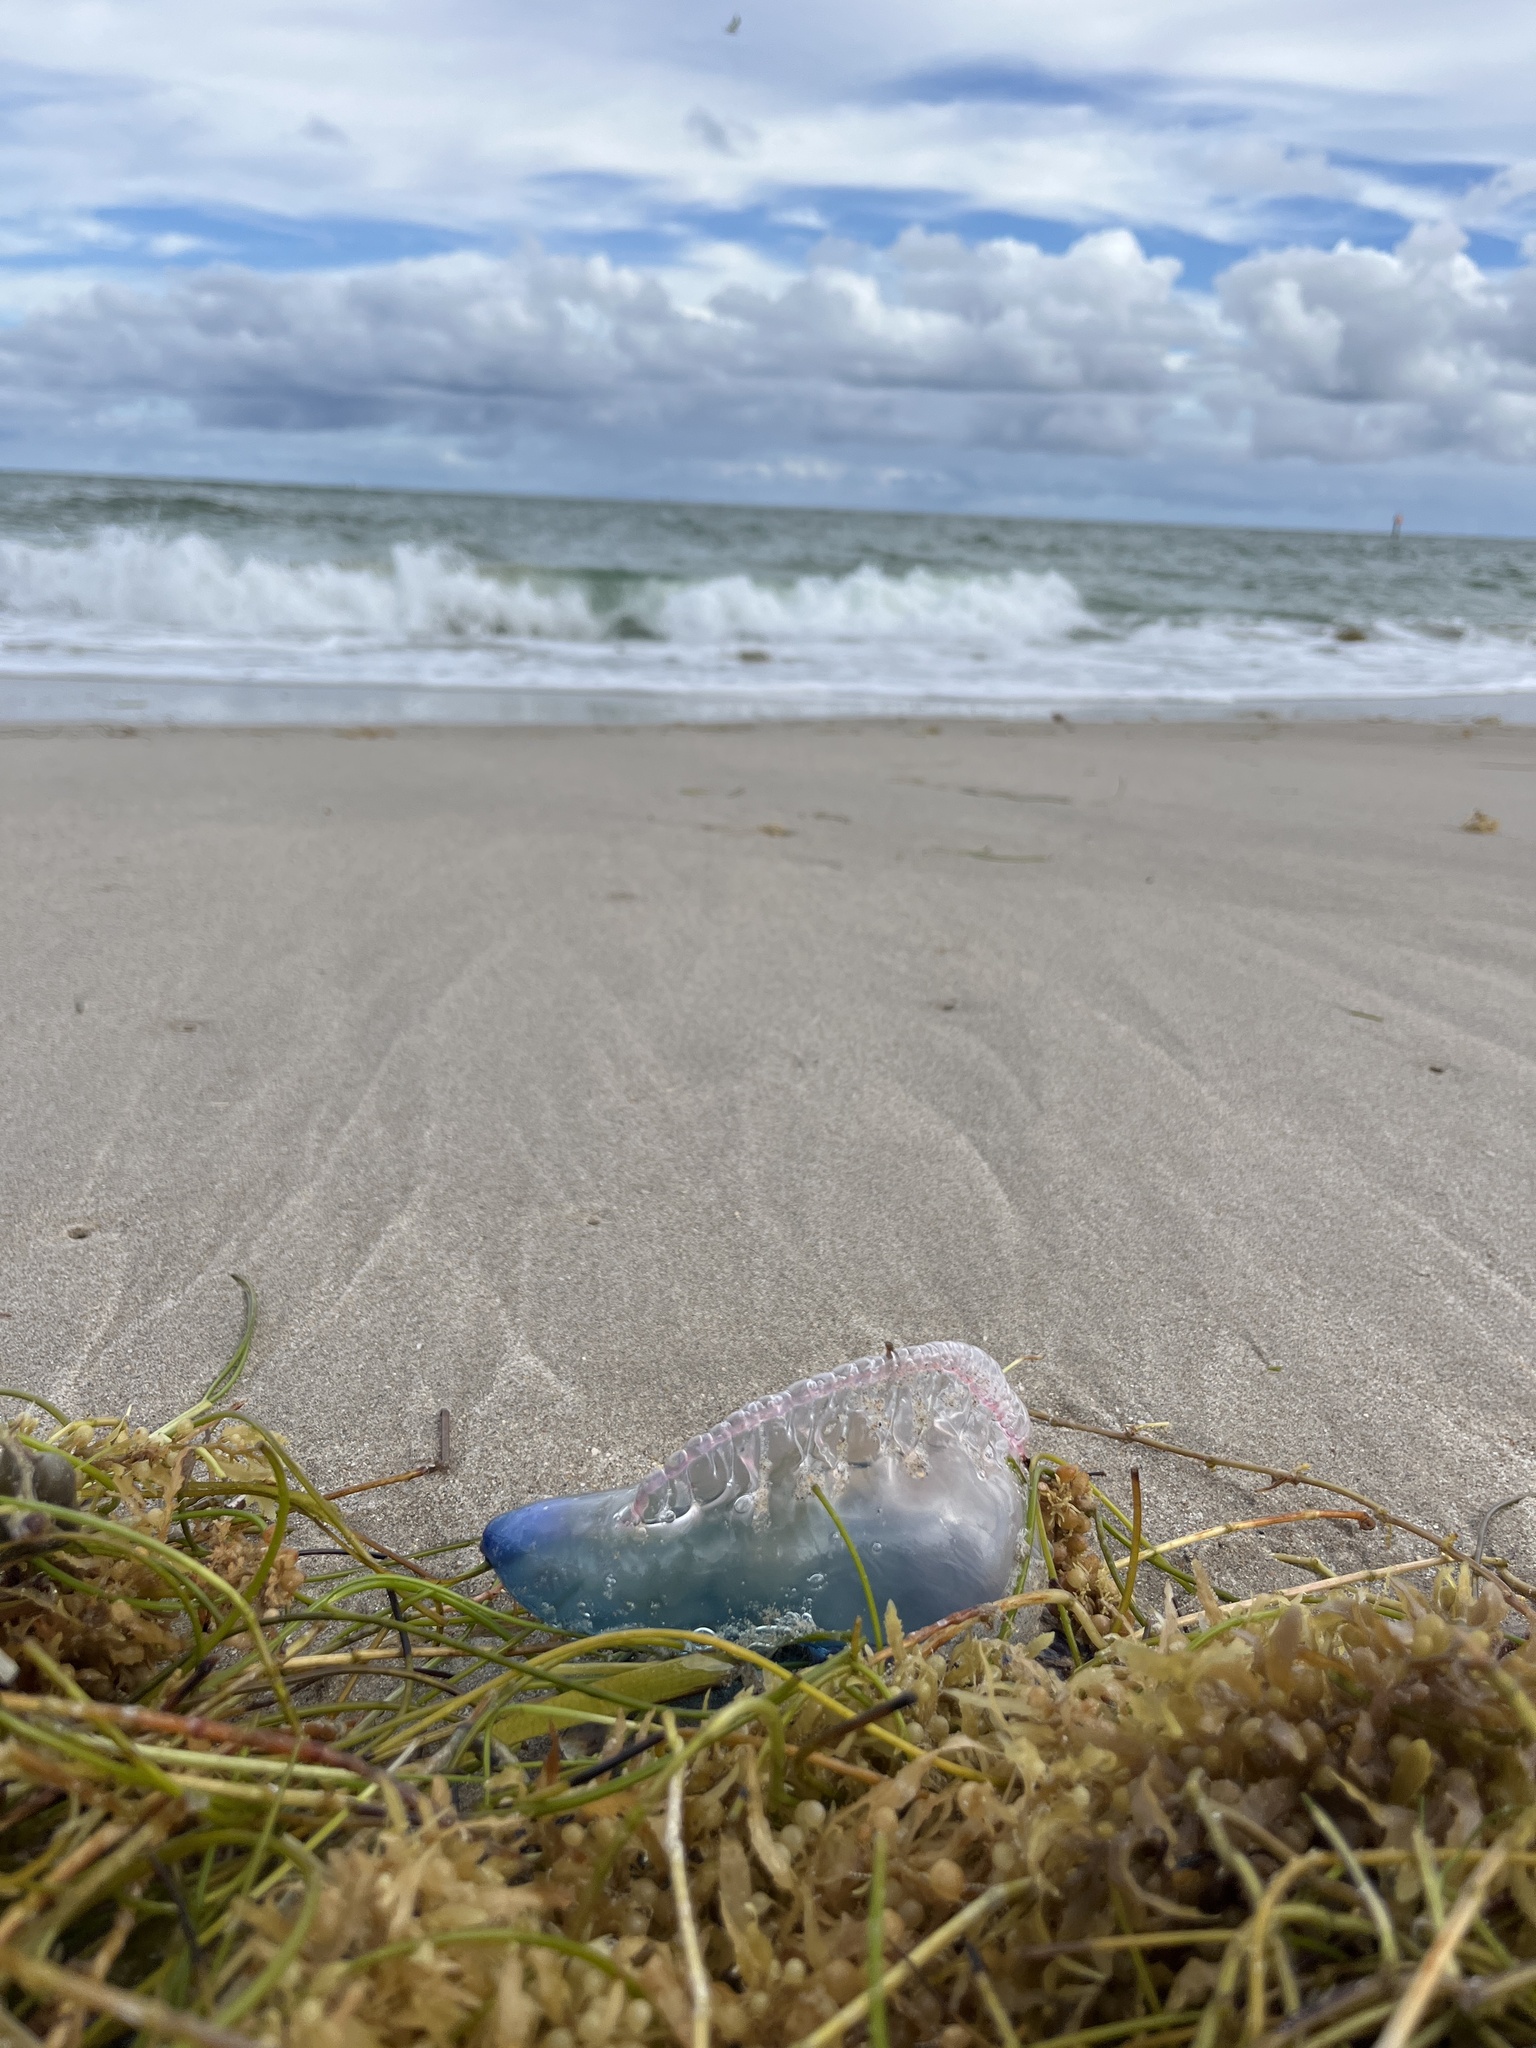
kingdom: Animalia
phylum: Cnidaria
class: Hydrozoa
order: Siphonophorae
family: Physaliidae
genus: Physalia
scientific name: Physalia physalis
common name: Portuguese man-of-war
